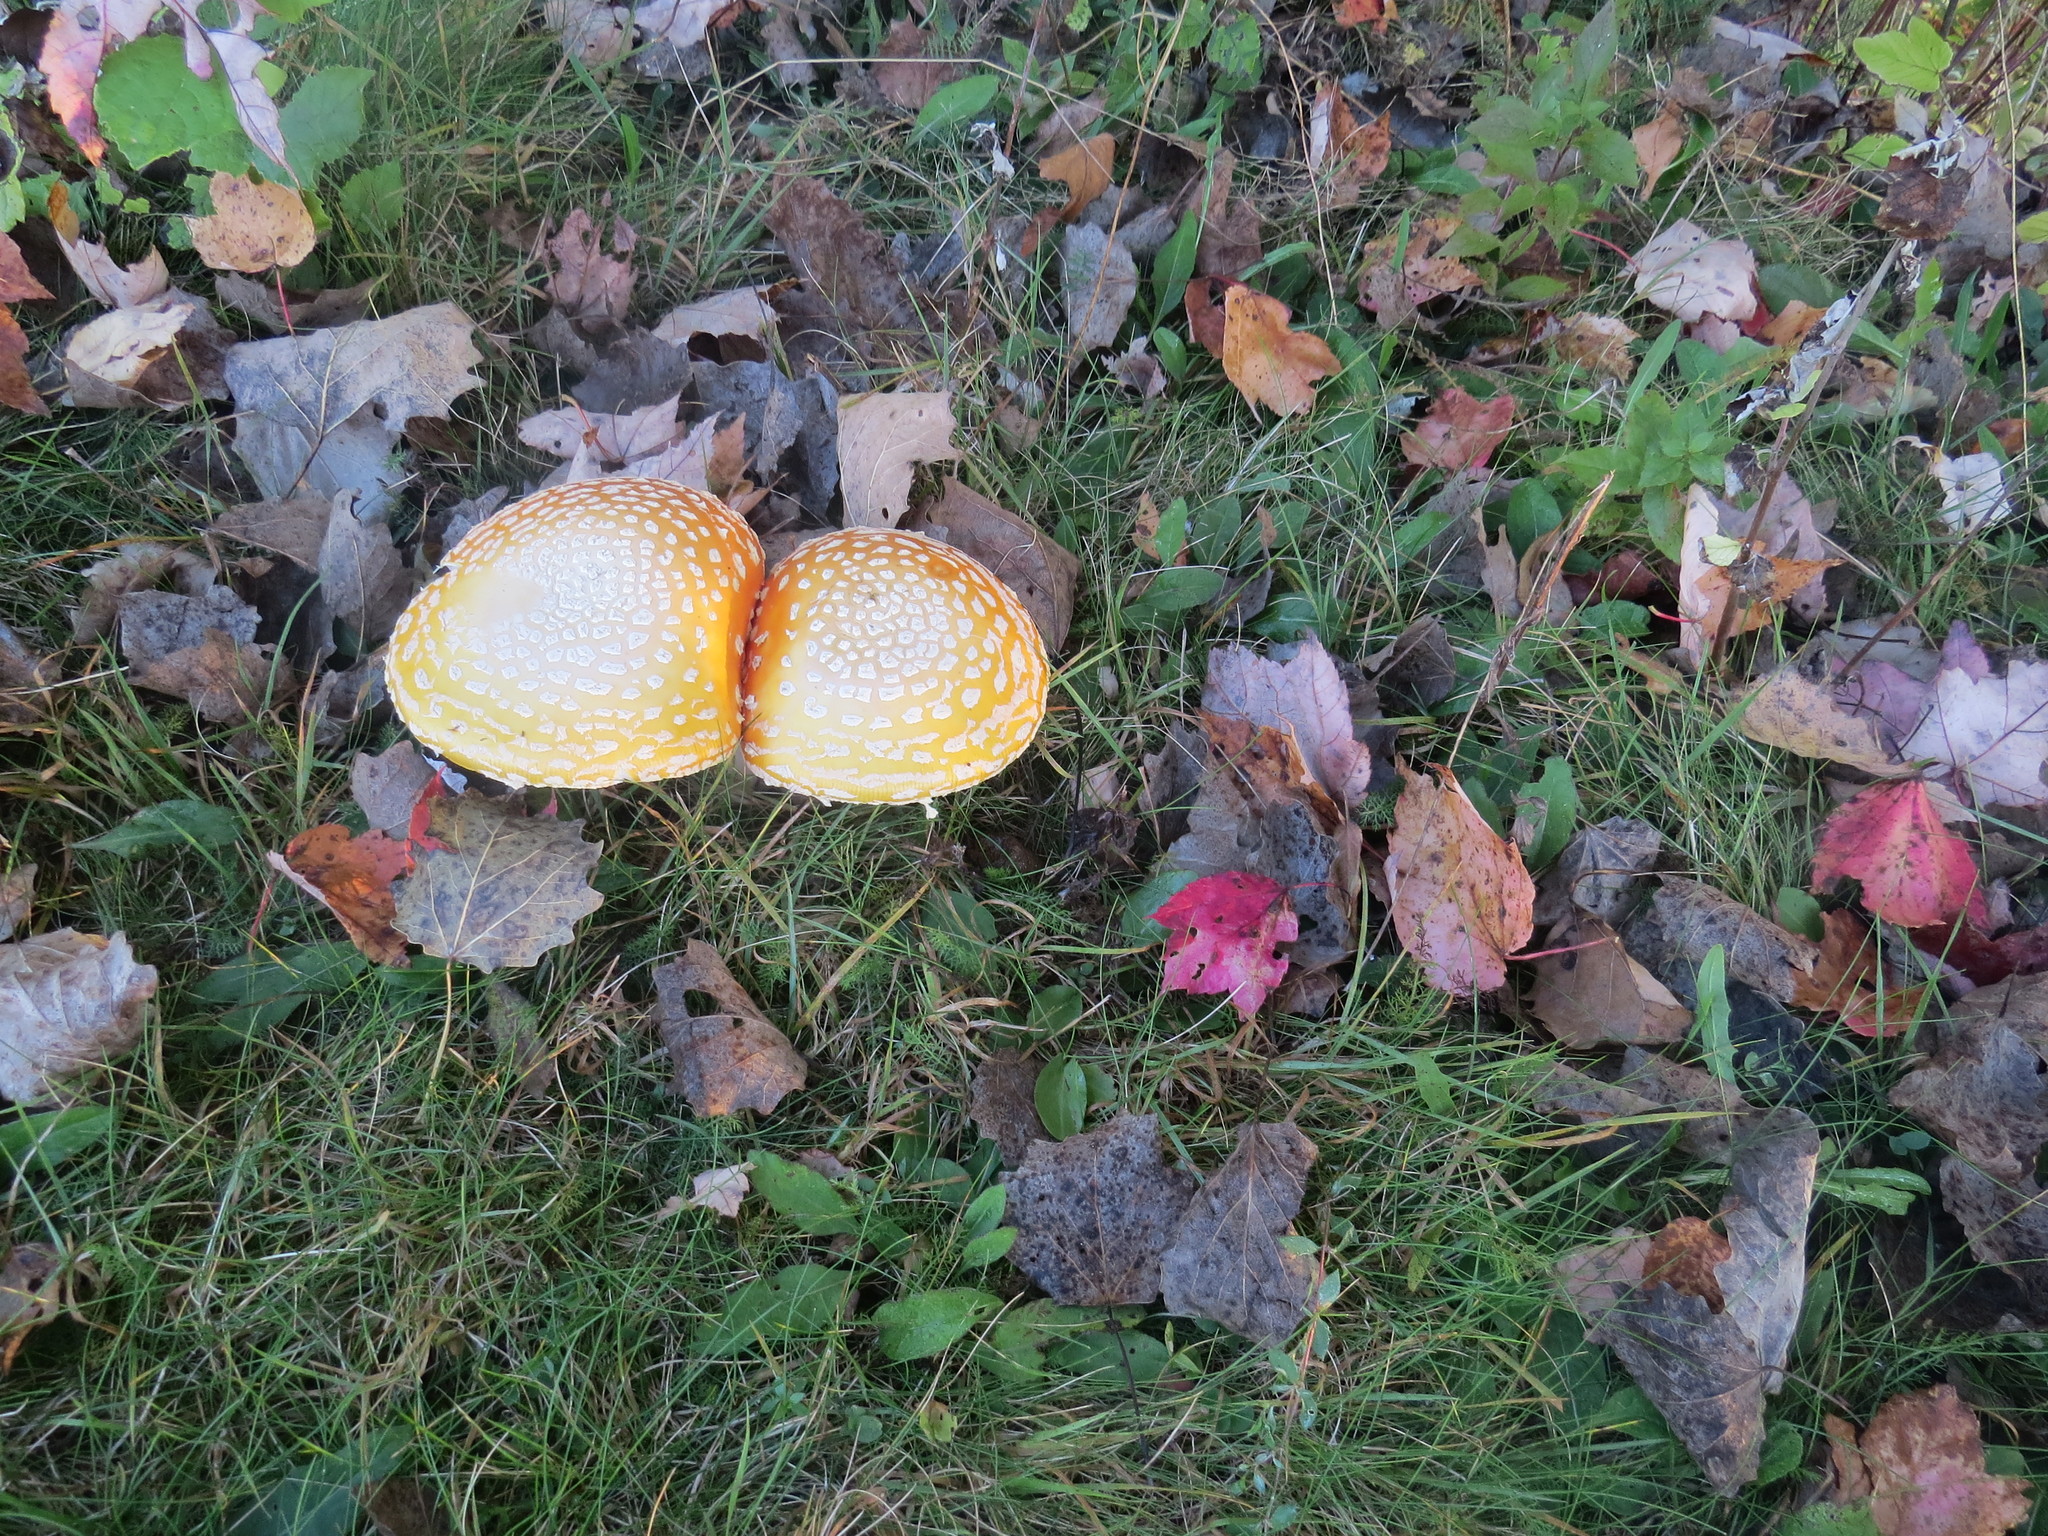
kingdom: Fungi
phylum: Basidiomycota
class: Agaricomycetes
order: Agaricales
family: Amanitaceae
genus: Amanita
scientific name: Amanita muscaria
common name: Fly agaric
